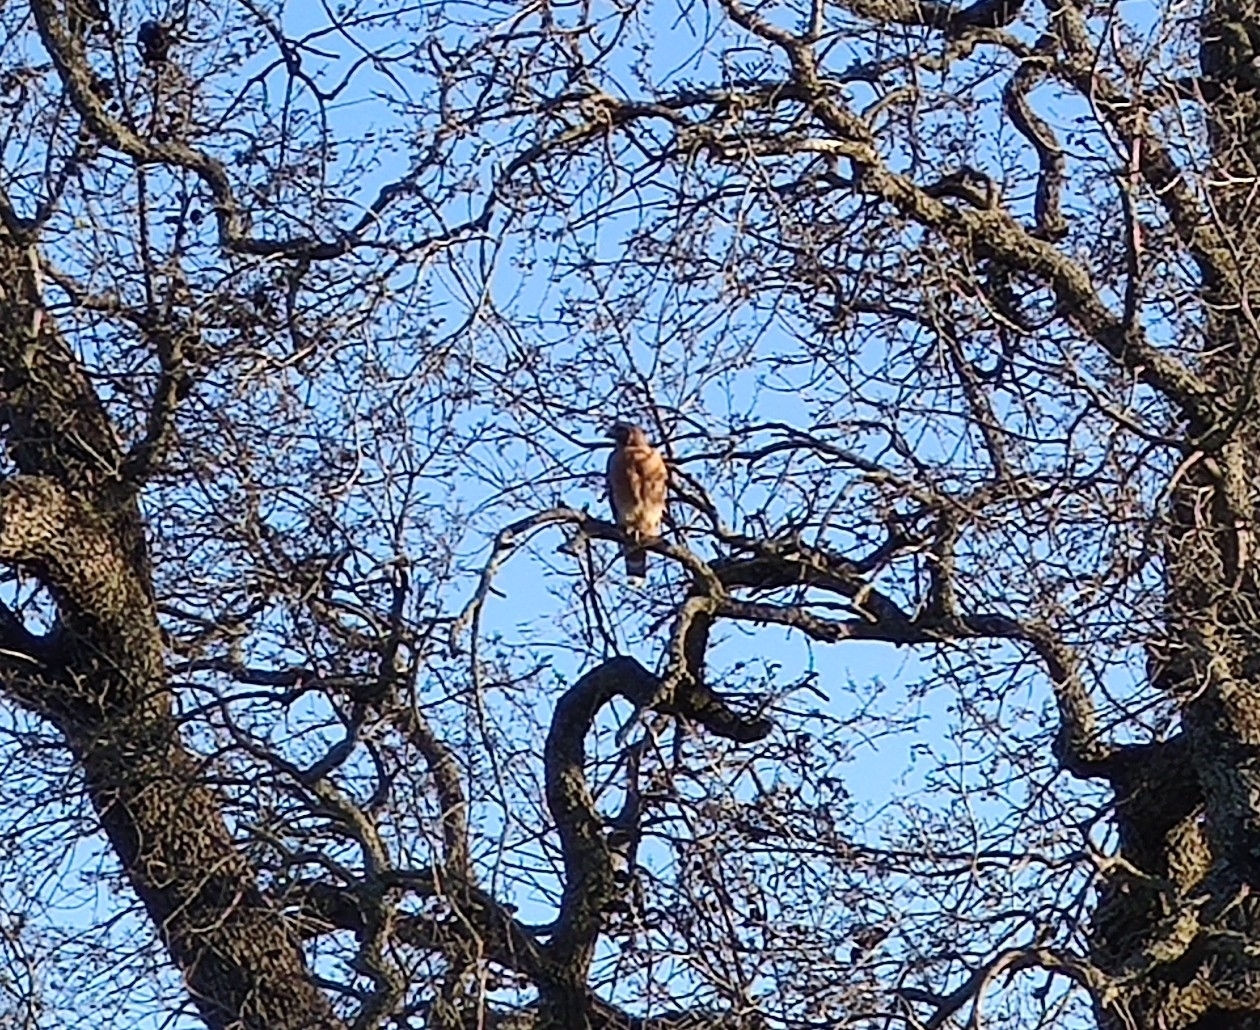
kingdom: Animalia
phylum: Chordata
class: Aves
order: Accipitriformes
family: Accipitridae
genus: Buteo
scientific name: Buteo lineatus
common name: Red-shouldered hawk
